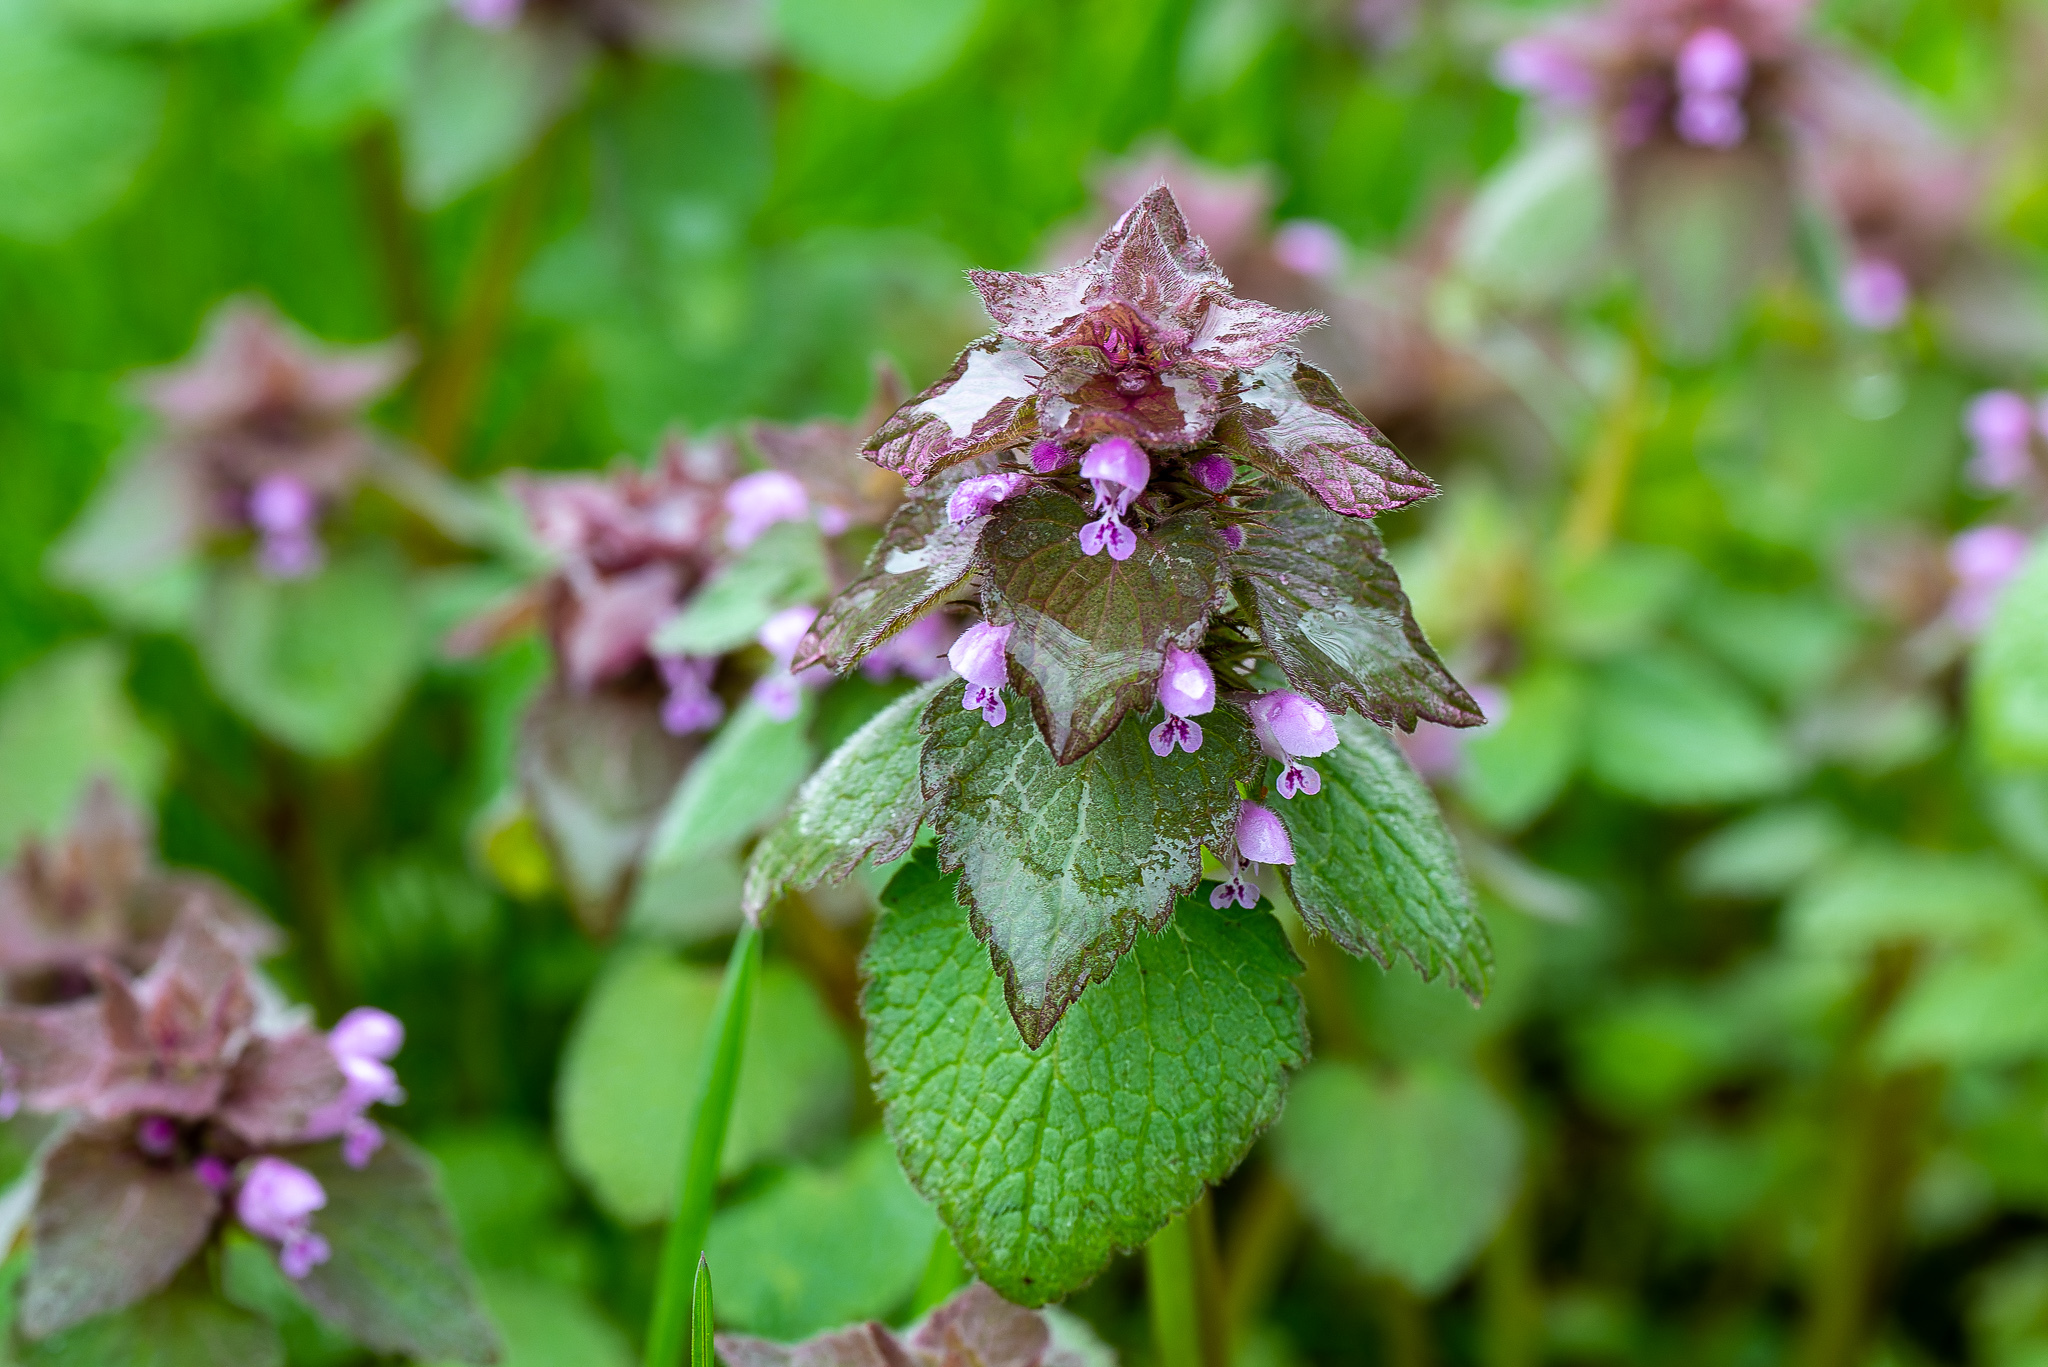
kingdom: Plantae
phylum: Tracheophyta
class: Magnoliopsida
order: Lamiales
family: Lamiaceae
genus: Lamium
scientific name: Lamium purpureum
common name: Red dead-nettle
